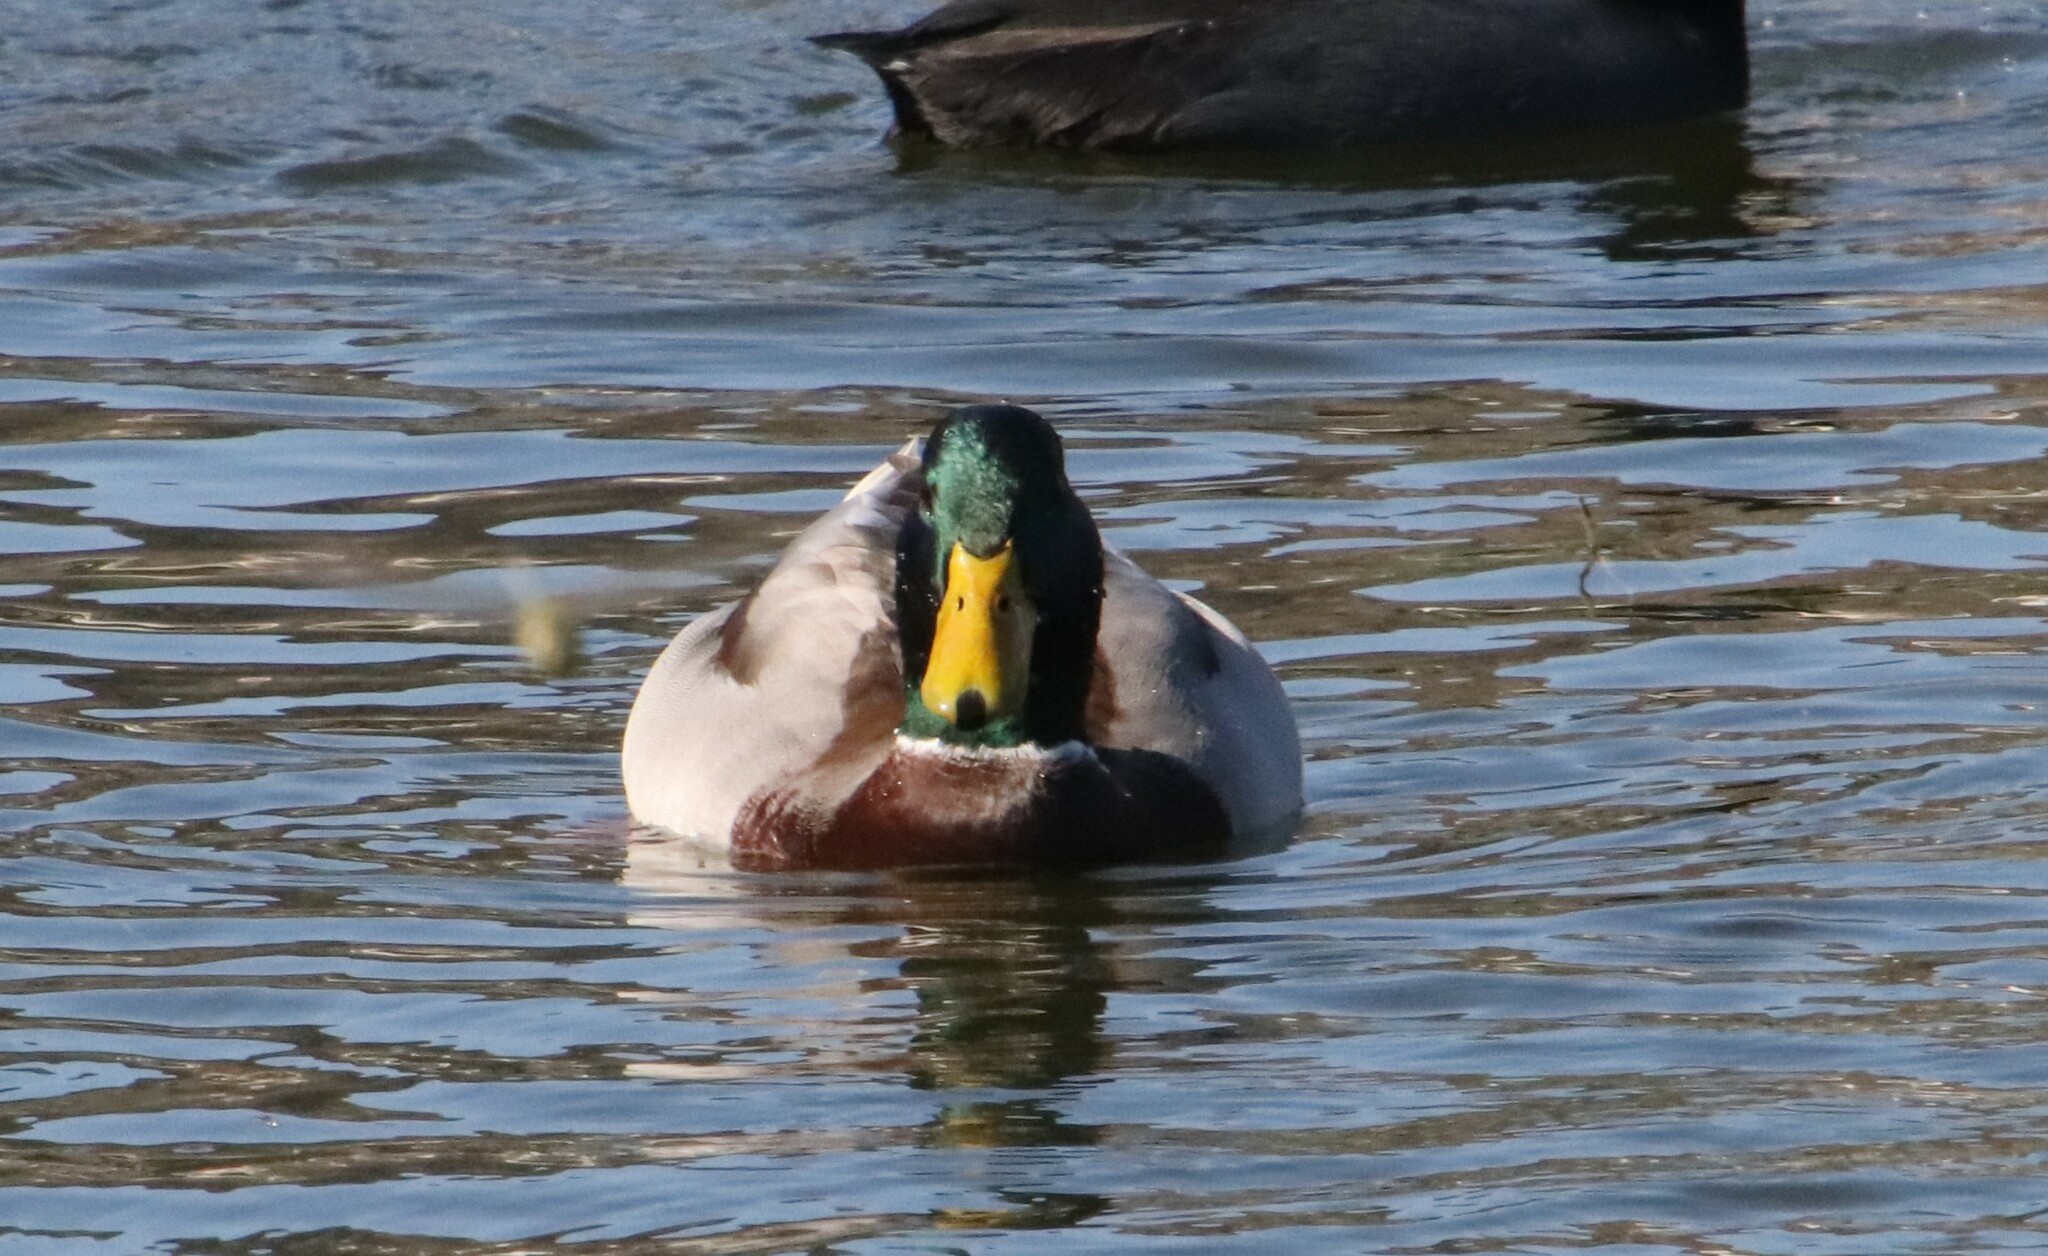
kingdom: Animalia
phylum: Chordata
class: Aves
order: Anseriformes
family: Anatidae
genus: Anas
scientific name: Anas platyrhynchos
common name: Mallard
